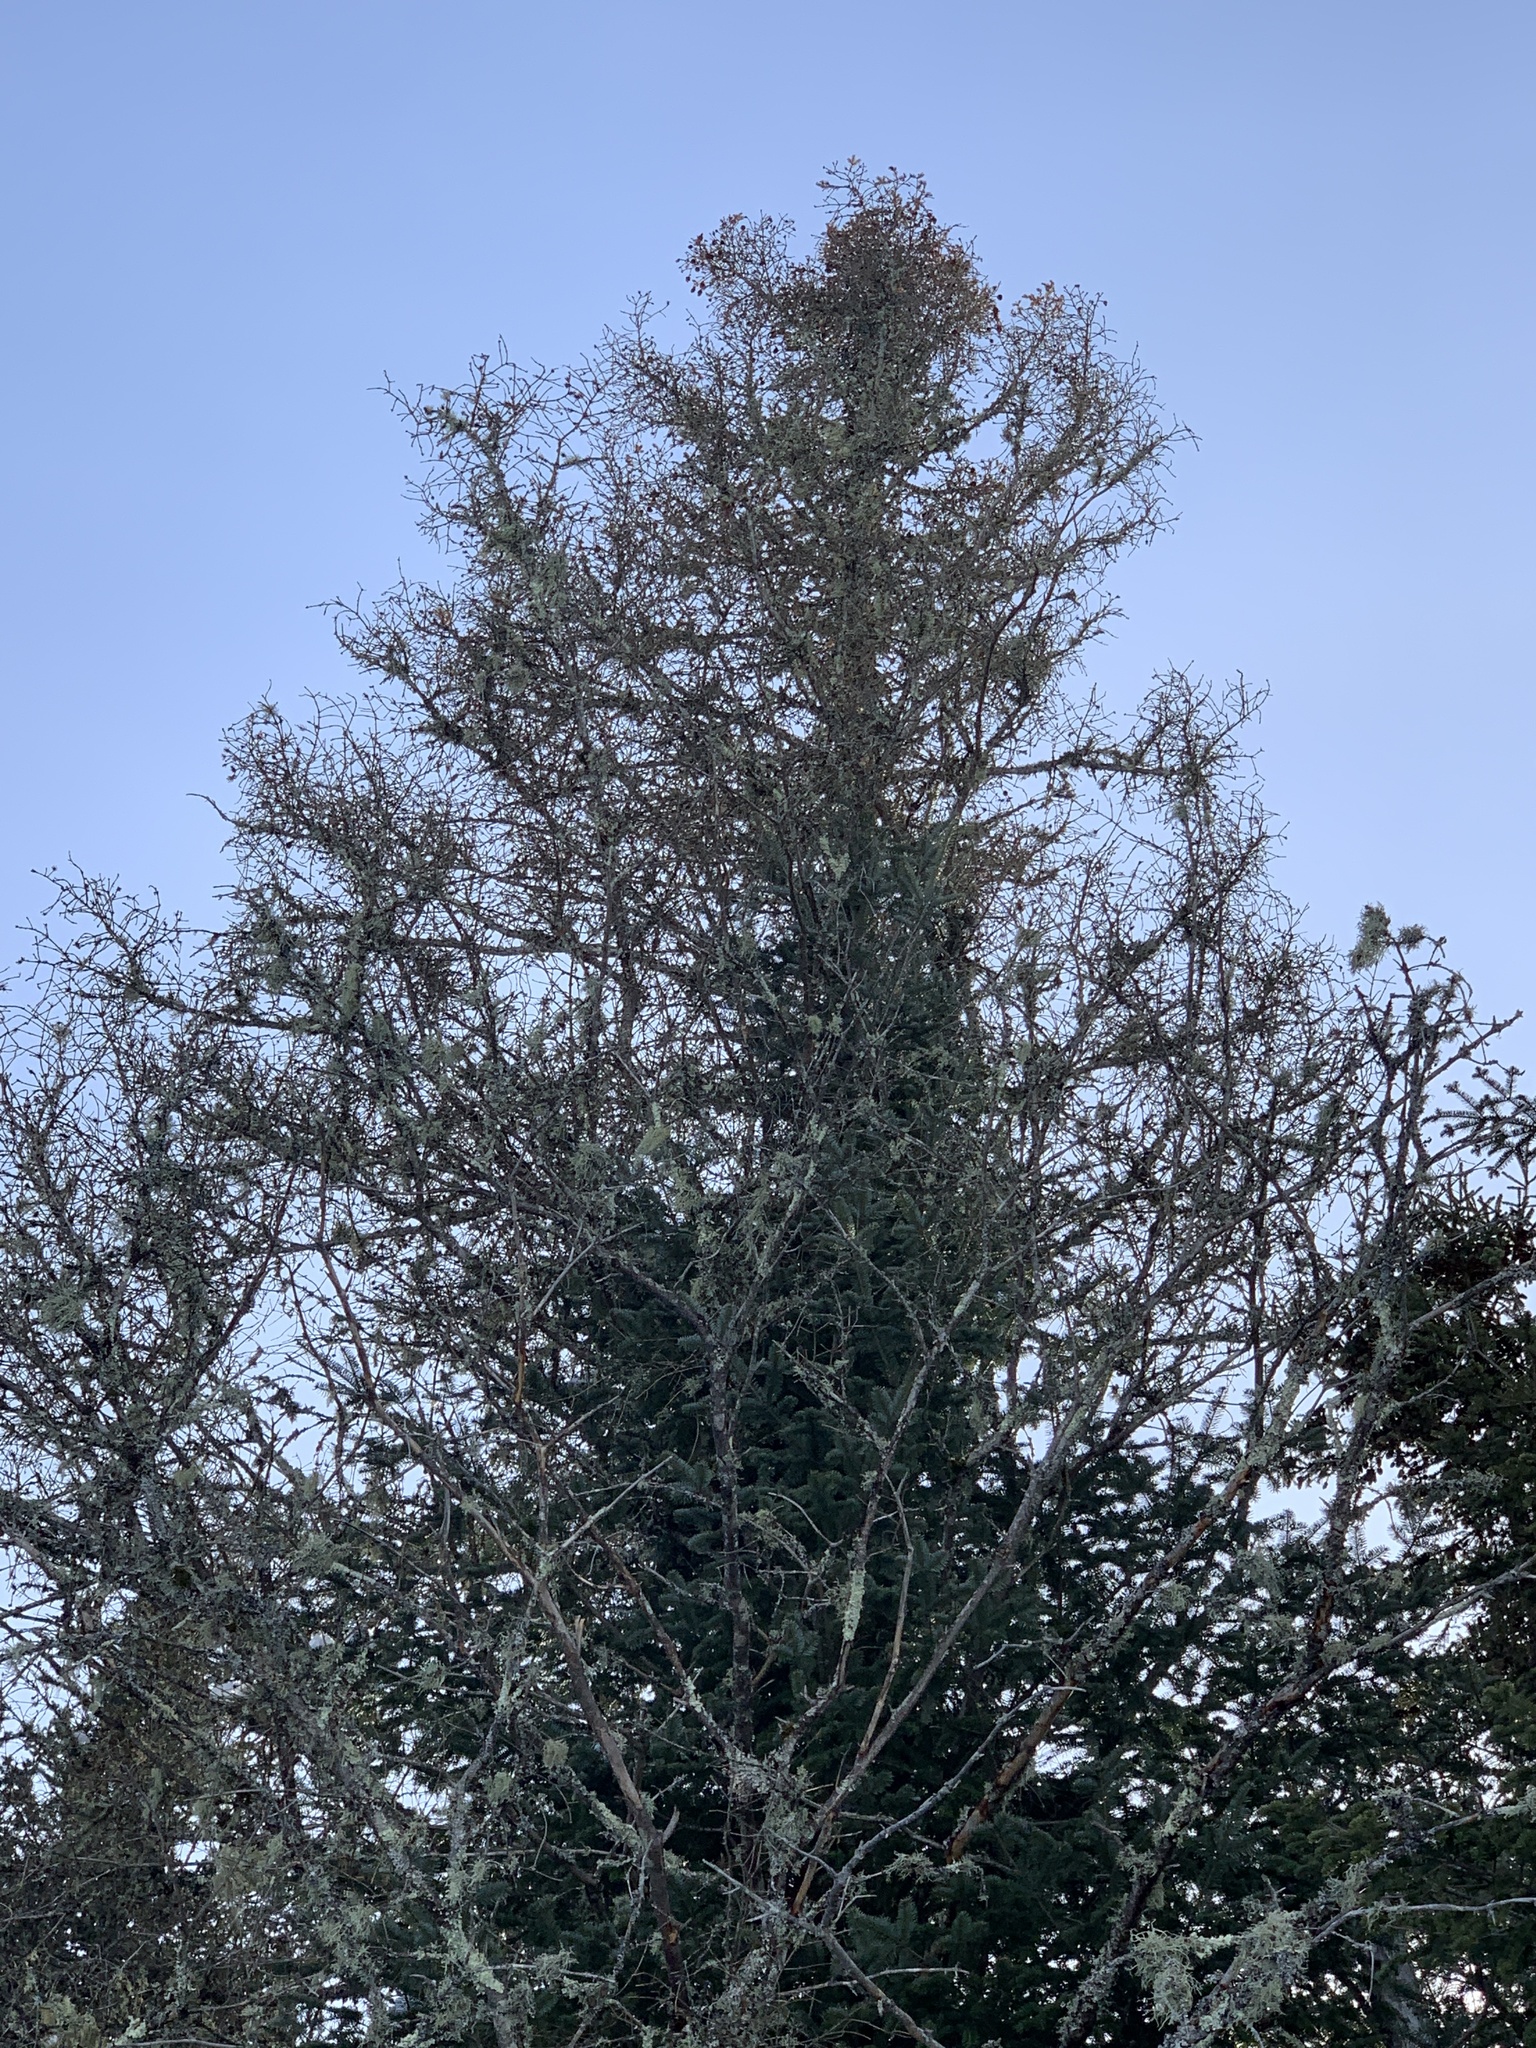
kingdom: Plantae
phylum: Tracheophyta
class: Pinopsida
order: Pinales
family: Pinaceae
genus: Larix
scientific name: Larix laricina
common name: American larch
